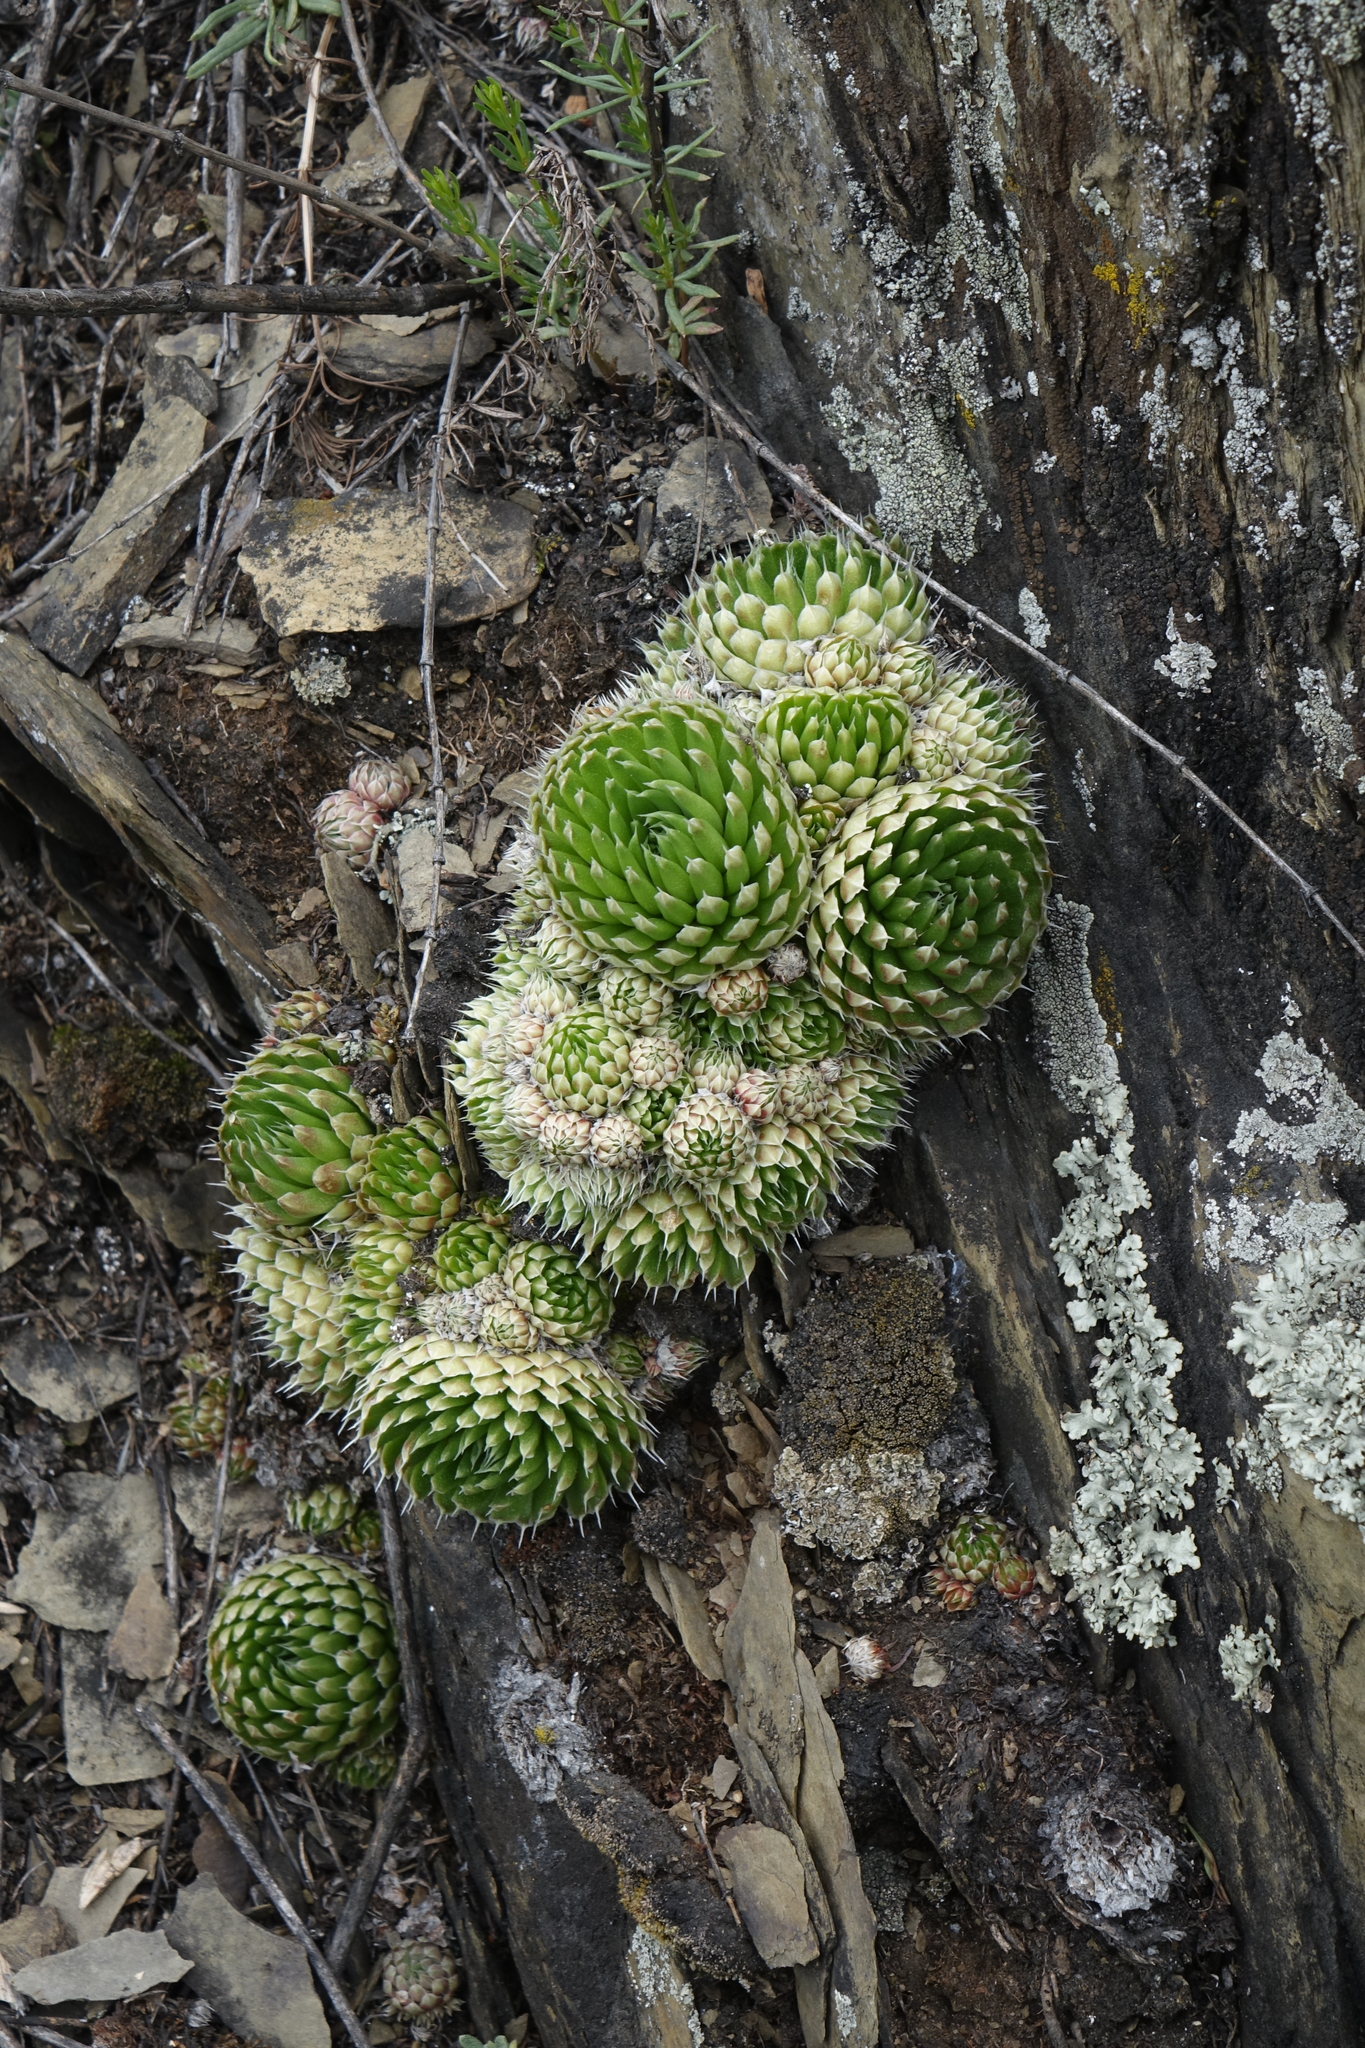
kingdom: Plantae
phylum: Tracheophyta
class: Magnoliopsida
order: Saxifragales
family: Crassulaceae
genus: Orostachys
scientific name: Orostachys spinosa
